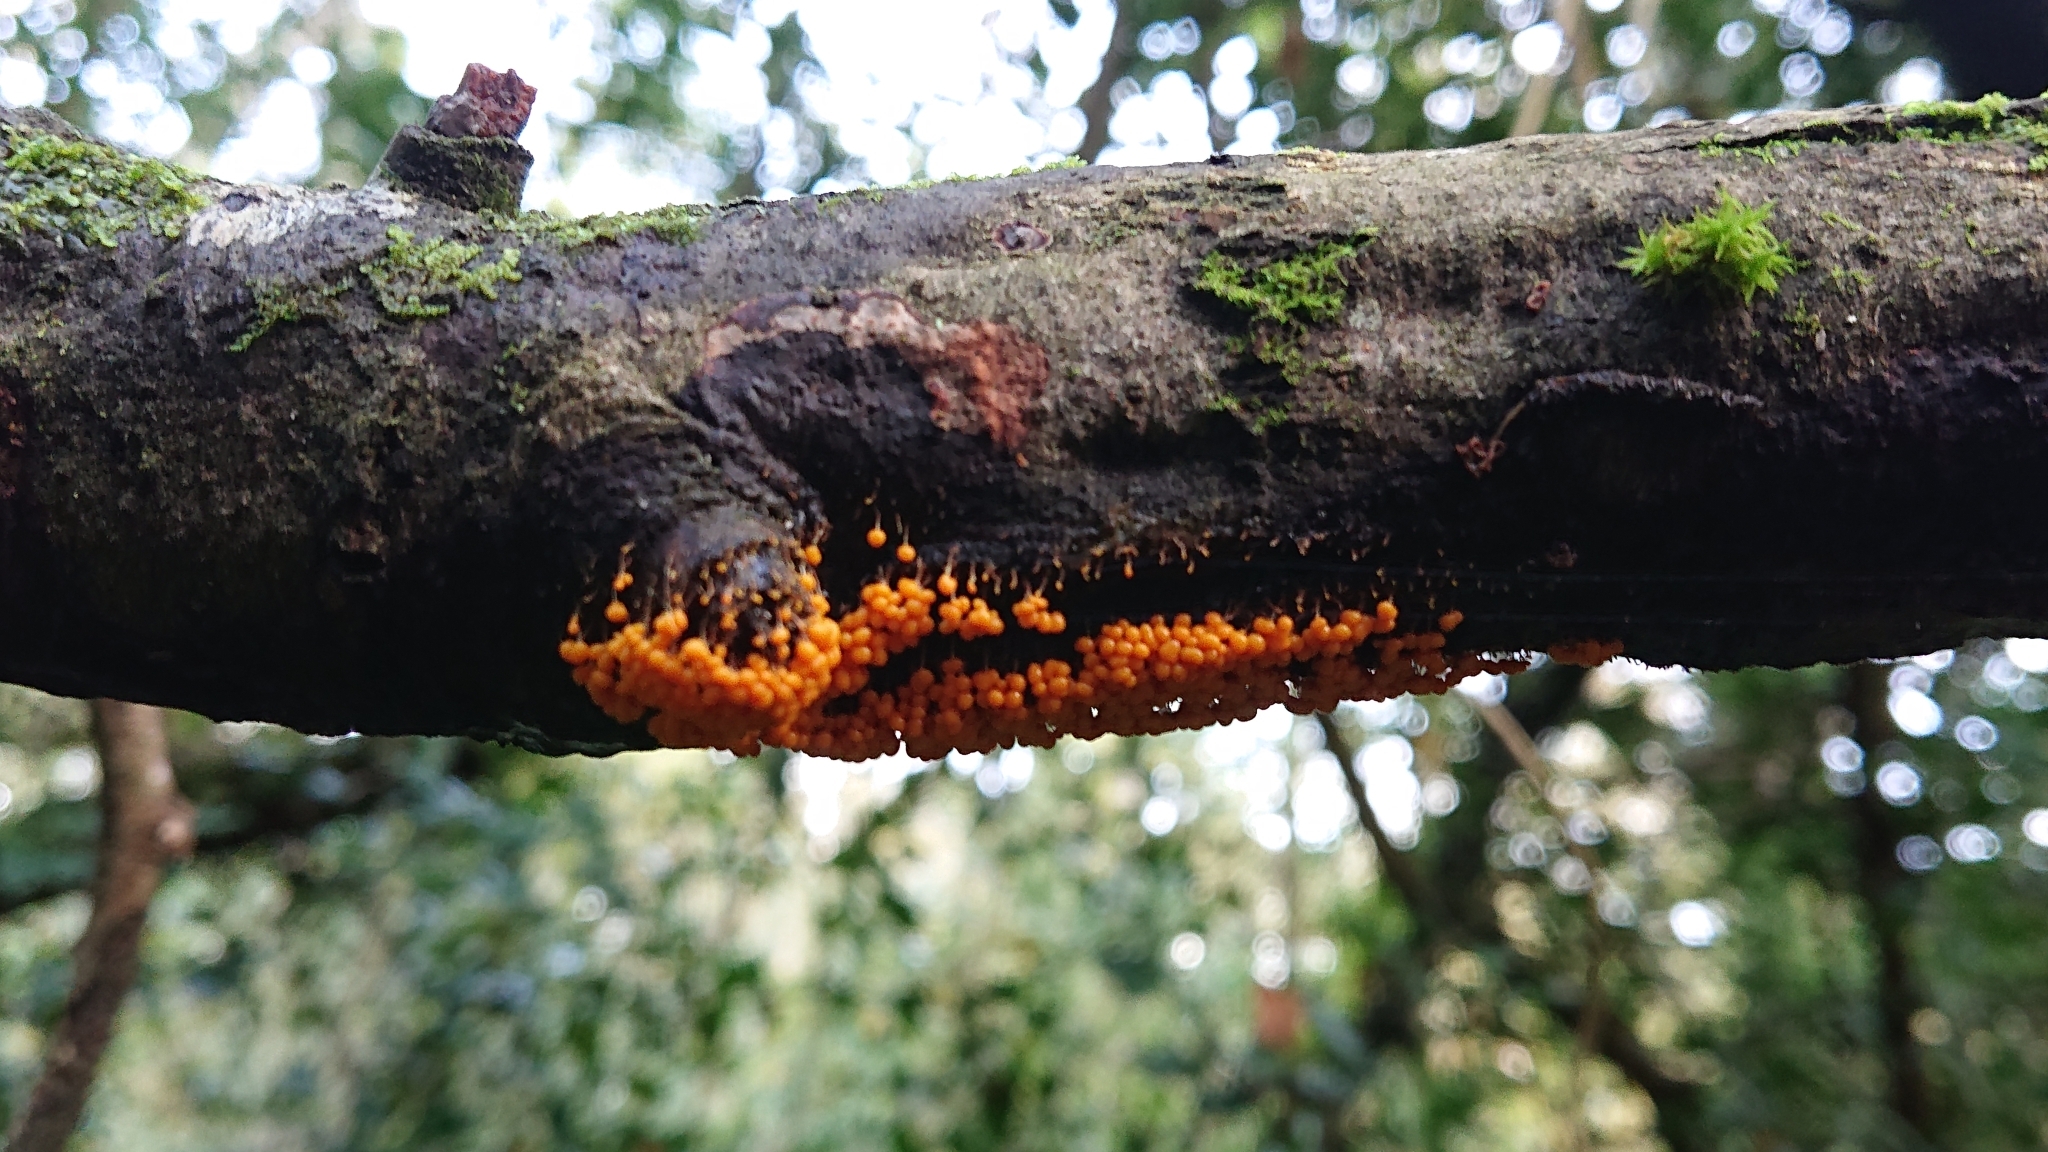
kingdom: Protozoa
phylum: Mycetozoa
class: Myxomycetes
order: Physarales
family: Physaraceae
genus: Badhamia
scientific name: Badhamia utricularis
